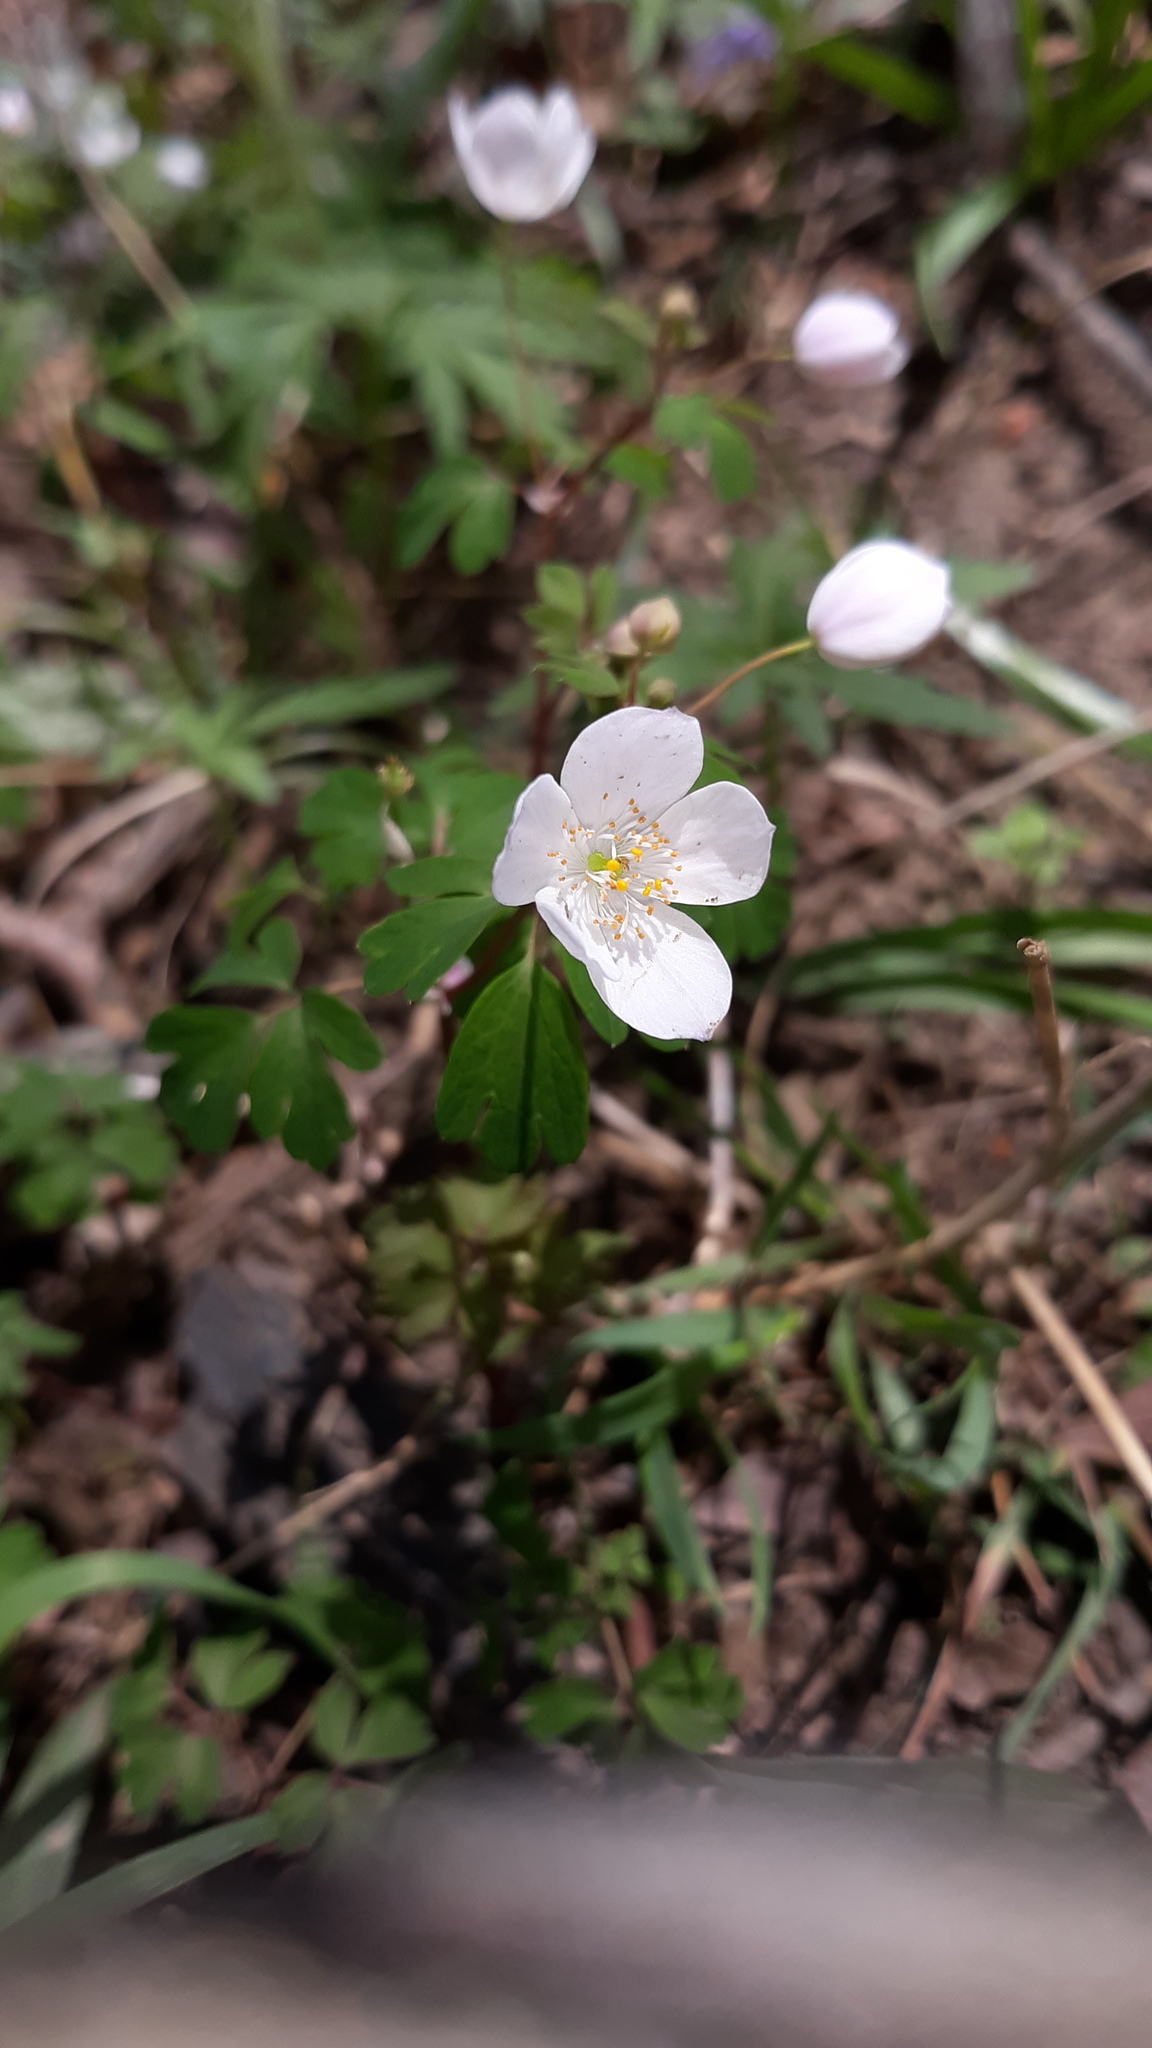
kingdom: Plantae
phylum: Tracheophyta
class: Magnoliopsida
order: Ranunculales
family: Ranunculaceae
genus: Enemion
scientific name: Enemion biternatum
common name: Eastern false rue-anemone
